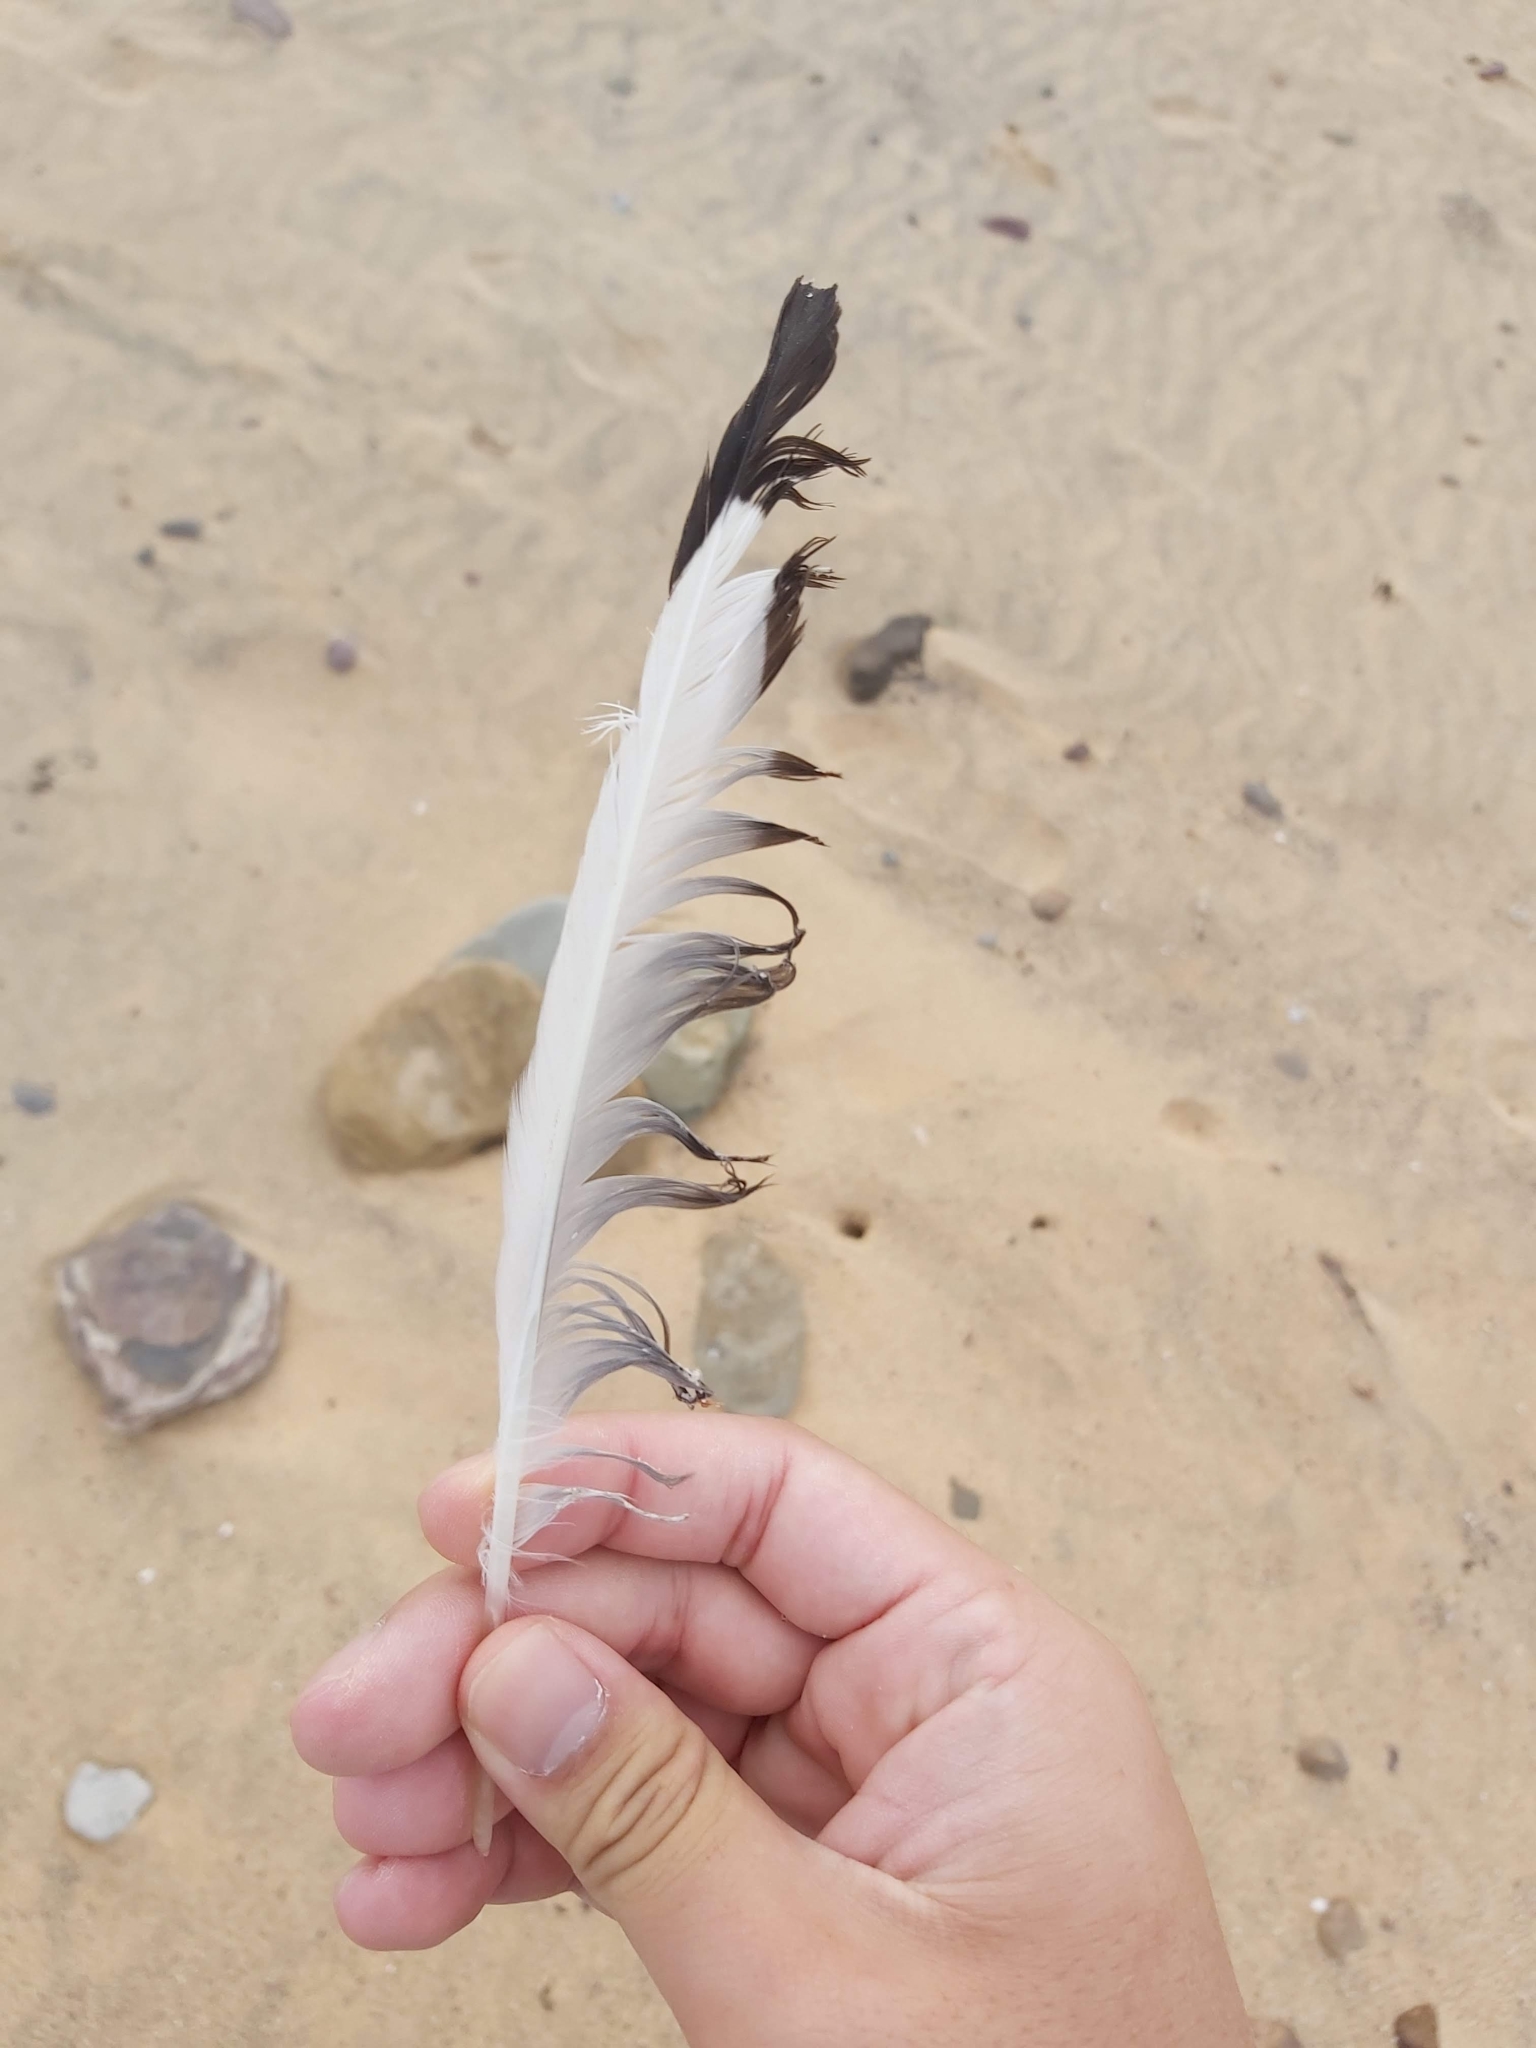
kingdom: Animalia
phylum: Chordata
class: Aves
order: Charadriiformes
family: Laridae
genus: Chroicocephalus
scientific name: Chroicocephalus novaehollandiae
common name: Silver gull
